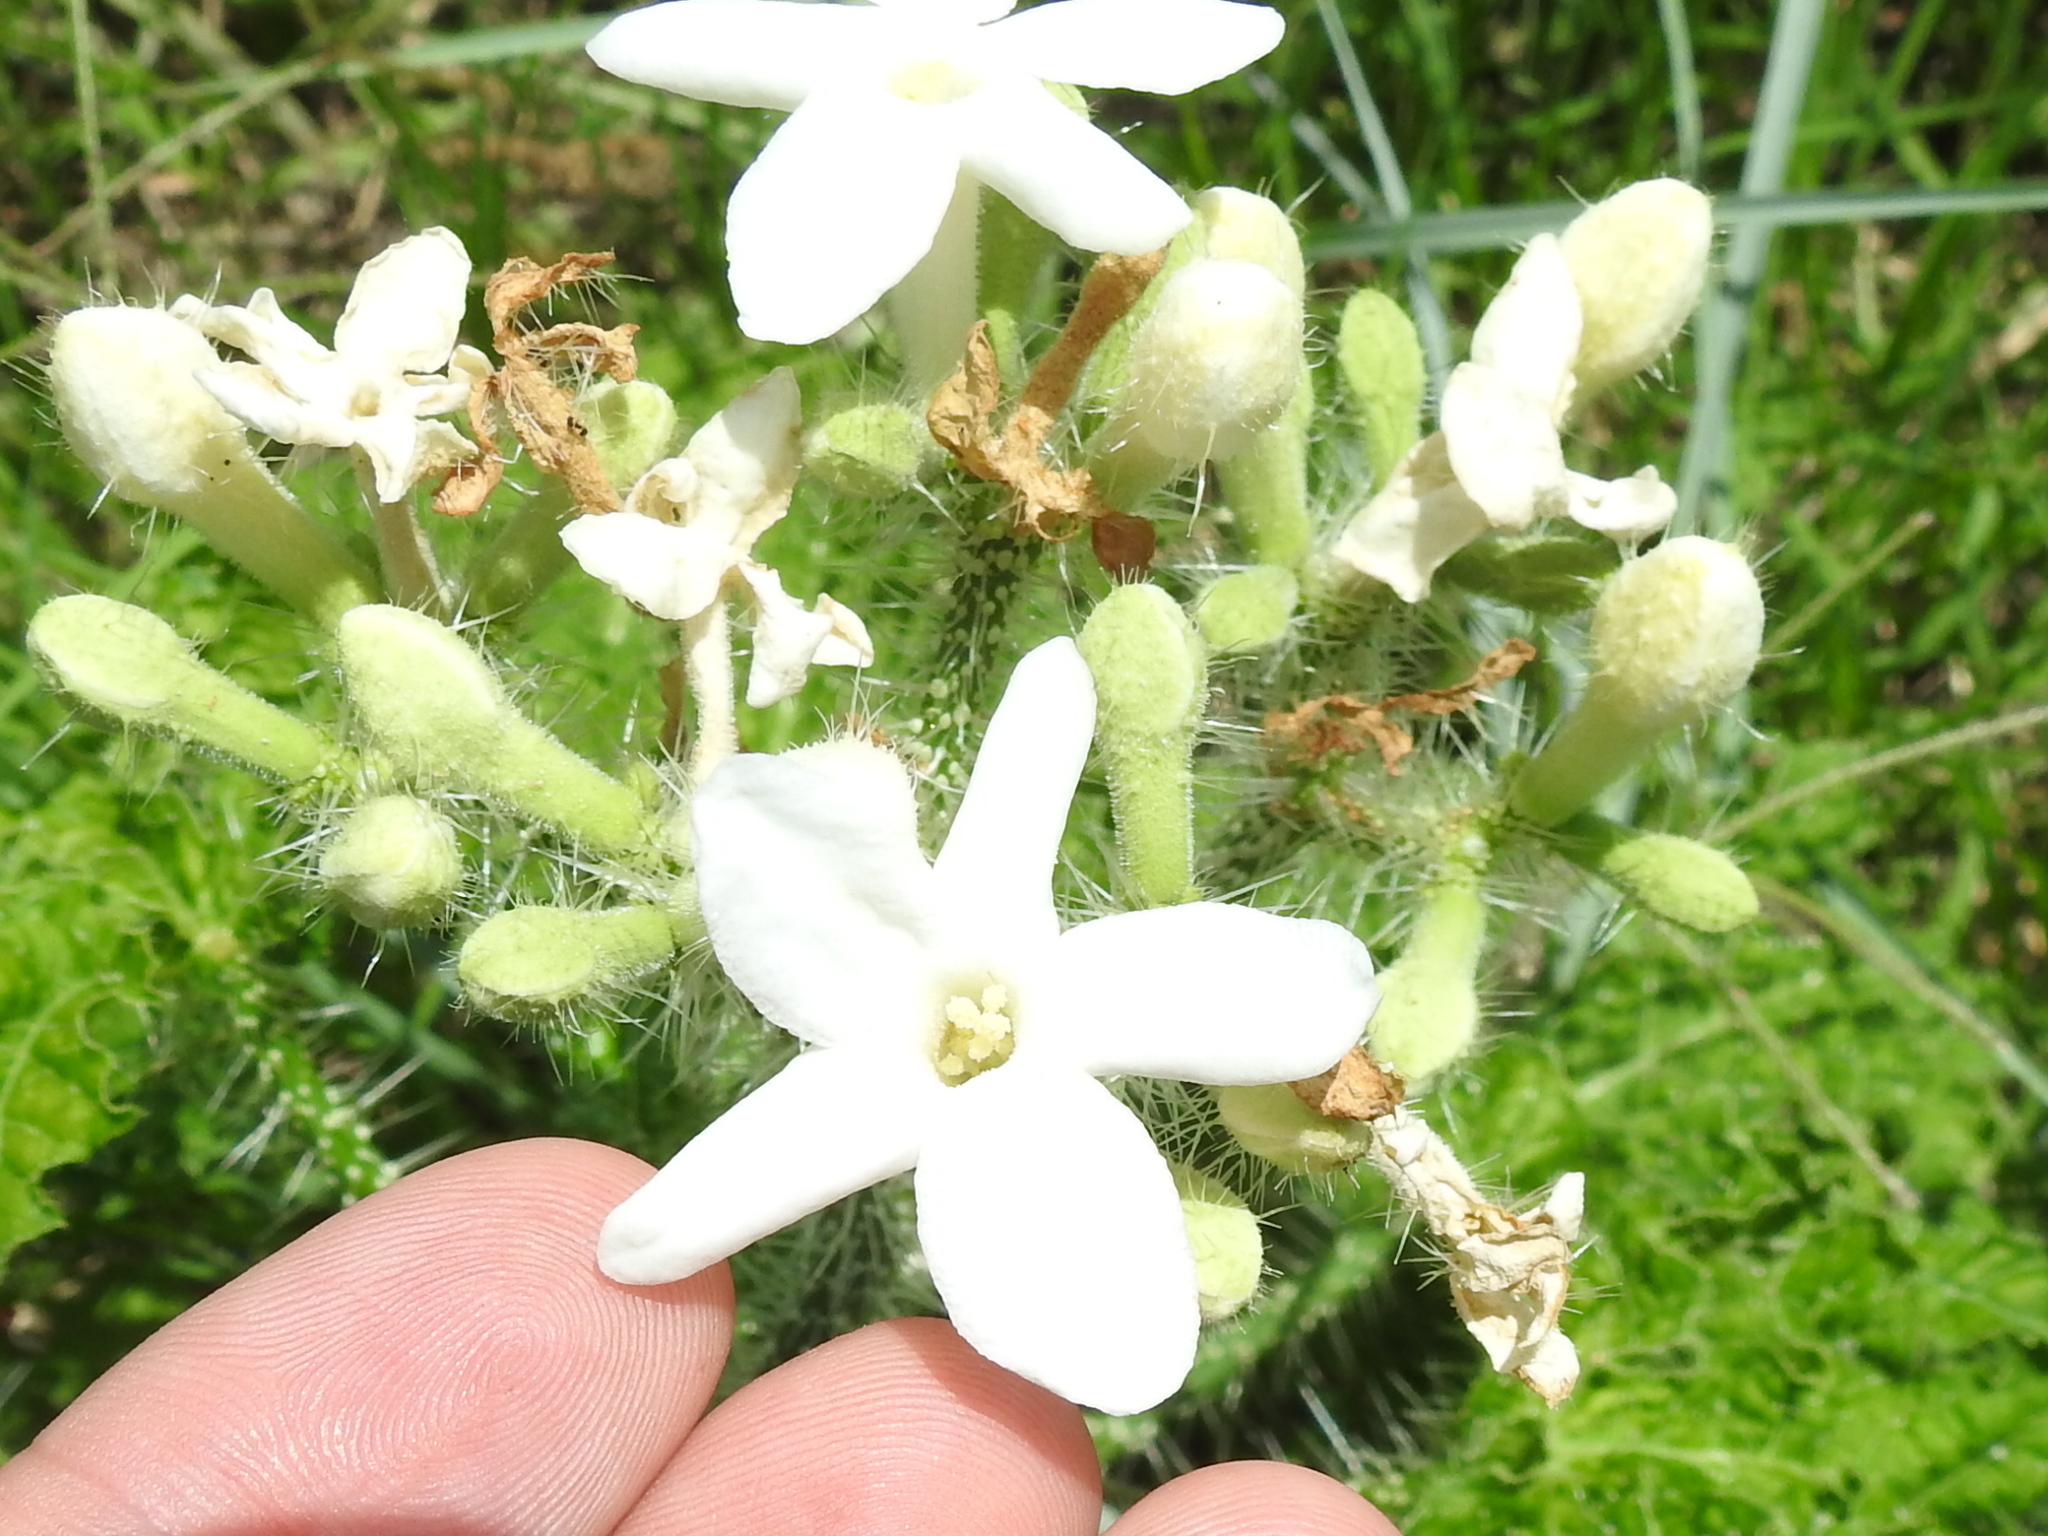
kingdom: Plantae
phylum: Tracheophyta
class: Magnoliopsida
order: Malpighiales
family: Euphorbiaceae
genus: Cnidoscolus
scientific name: Cnidoscolus texanus
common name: Texas bull-nettle
